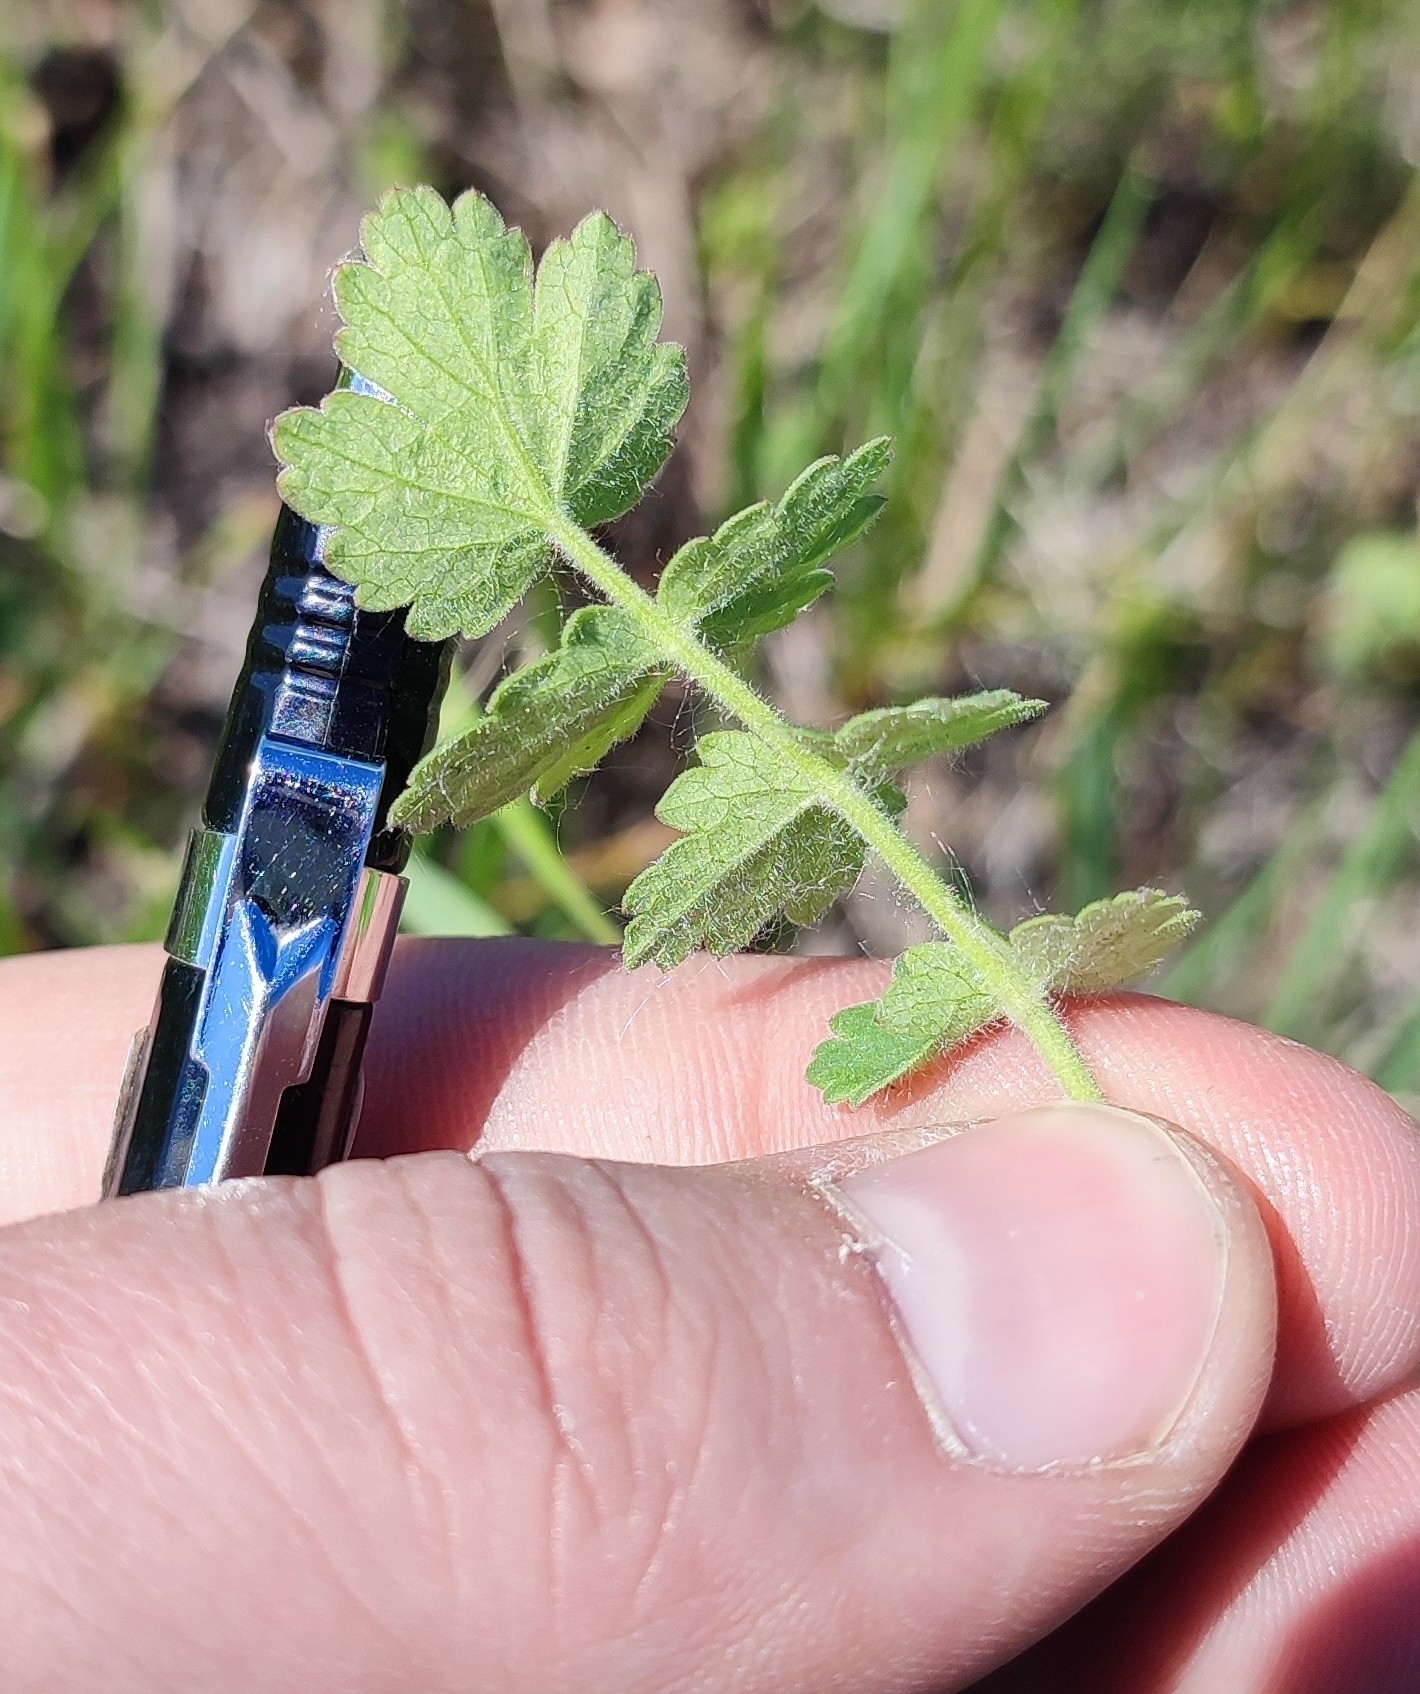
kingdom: Plantae
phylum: Tracheophyta
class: Magnoliopsida
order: Apiales
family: Apiaceae
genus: Pimpinella
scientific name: Pimpinella saxifraga
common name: Burnet-saxifrage
